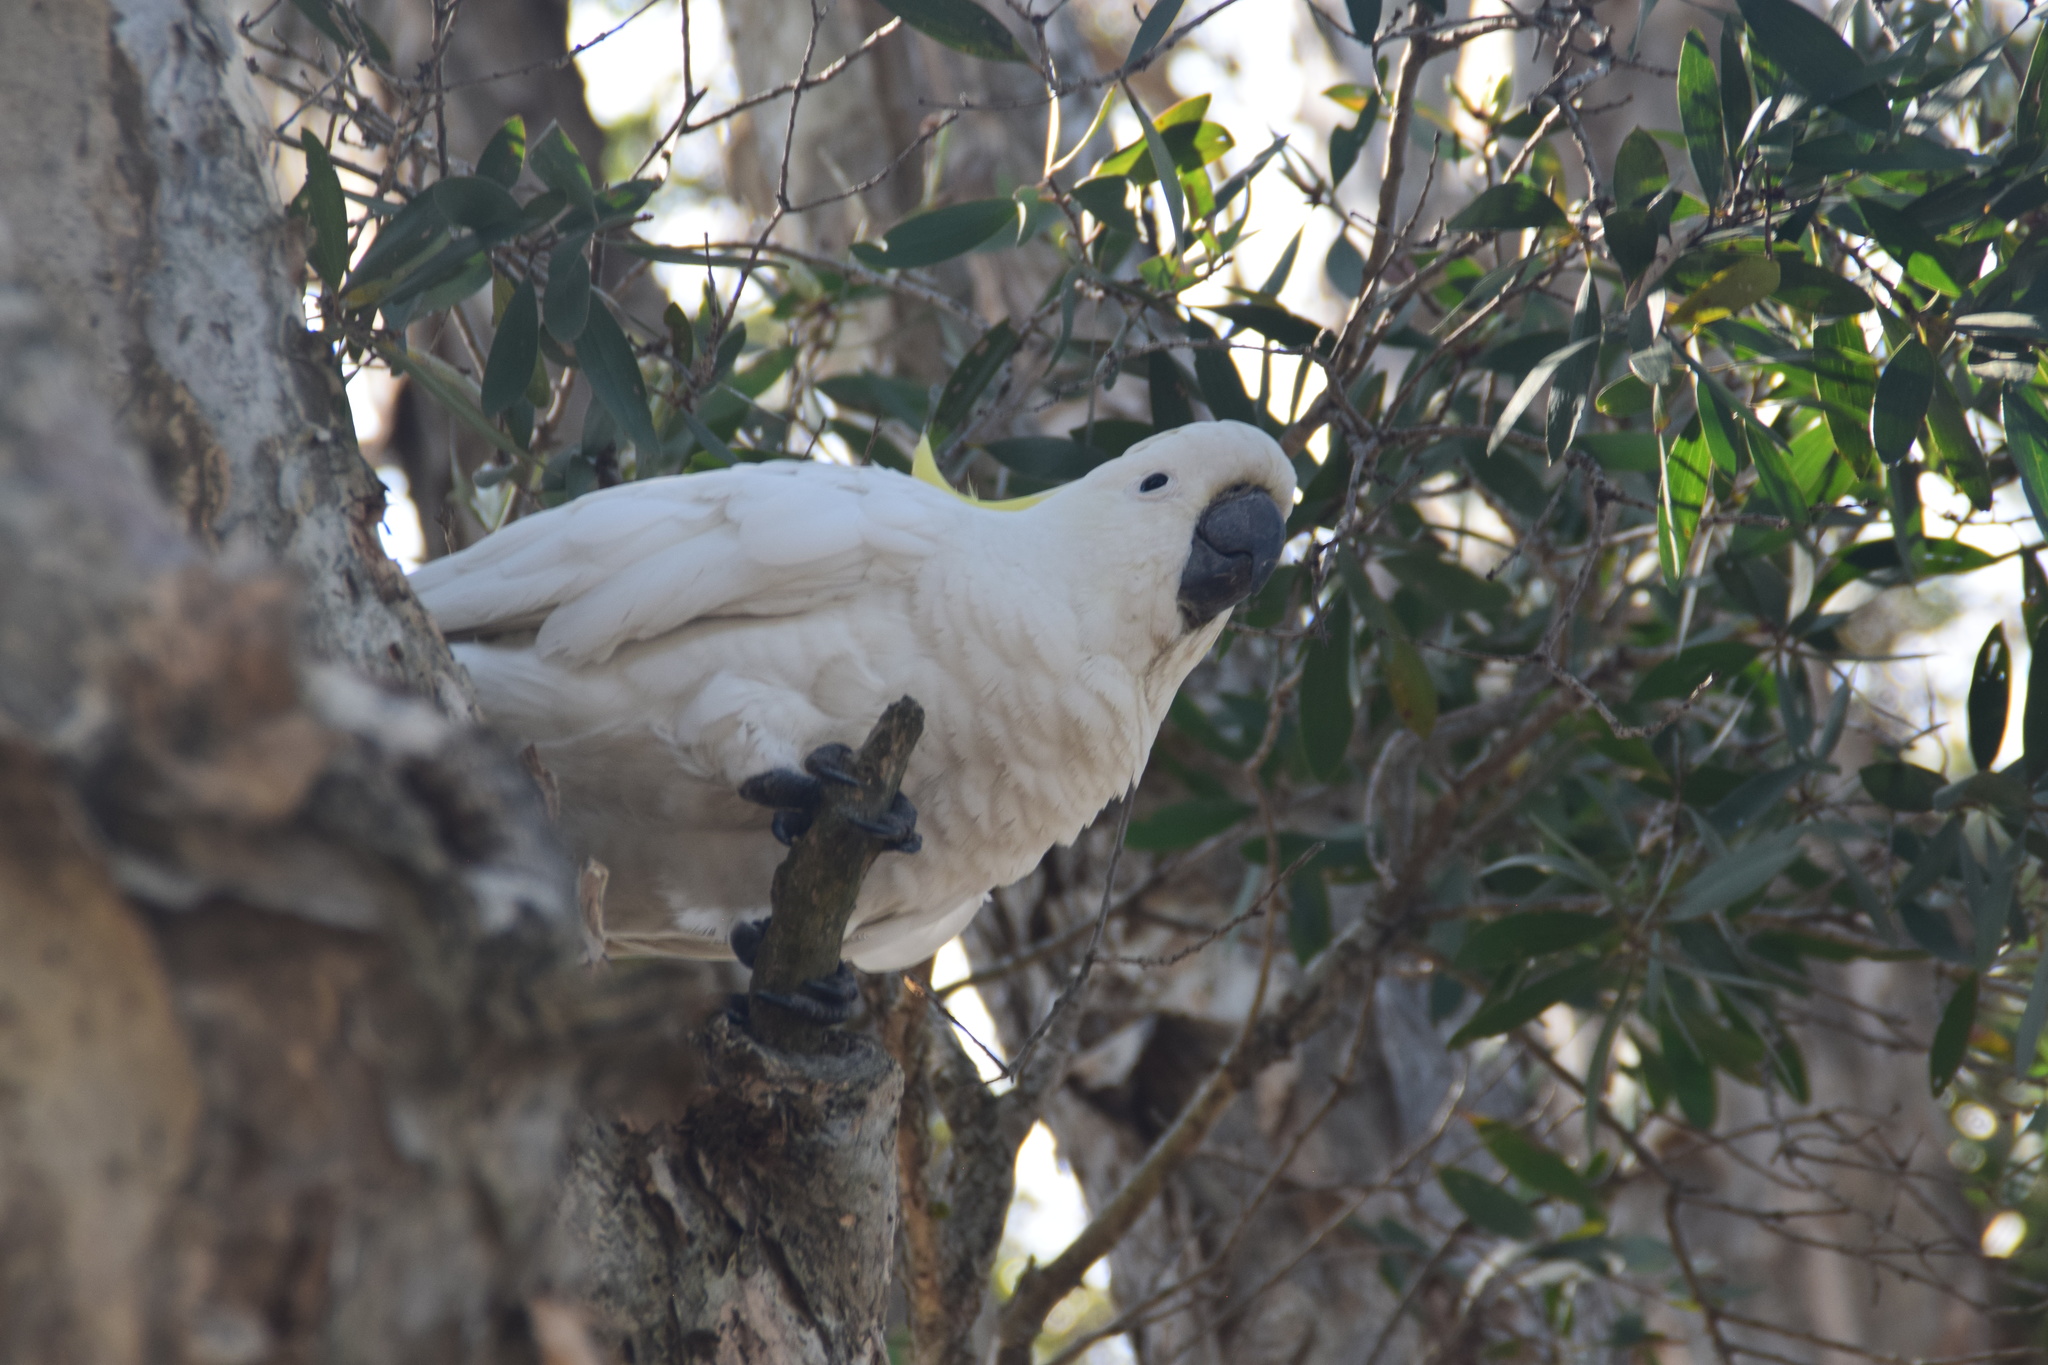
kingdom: Animalia
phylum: Chordata
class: Aves
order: Psittaciformes
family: Psittacidae
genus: Cacatua
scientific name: Cacatua galerita
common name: Sulphur-crested cockatoo
